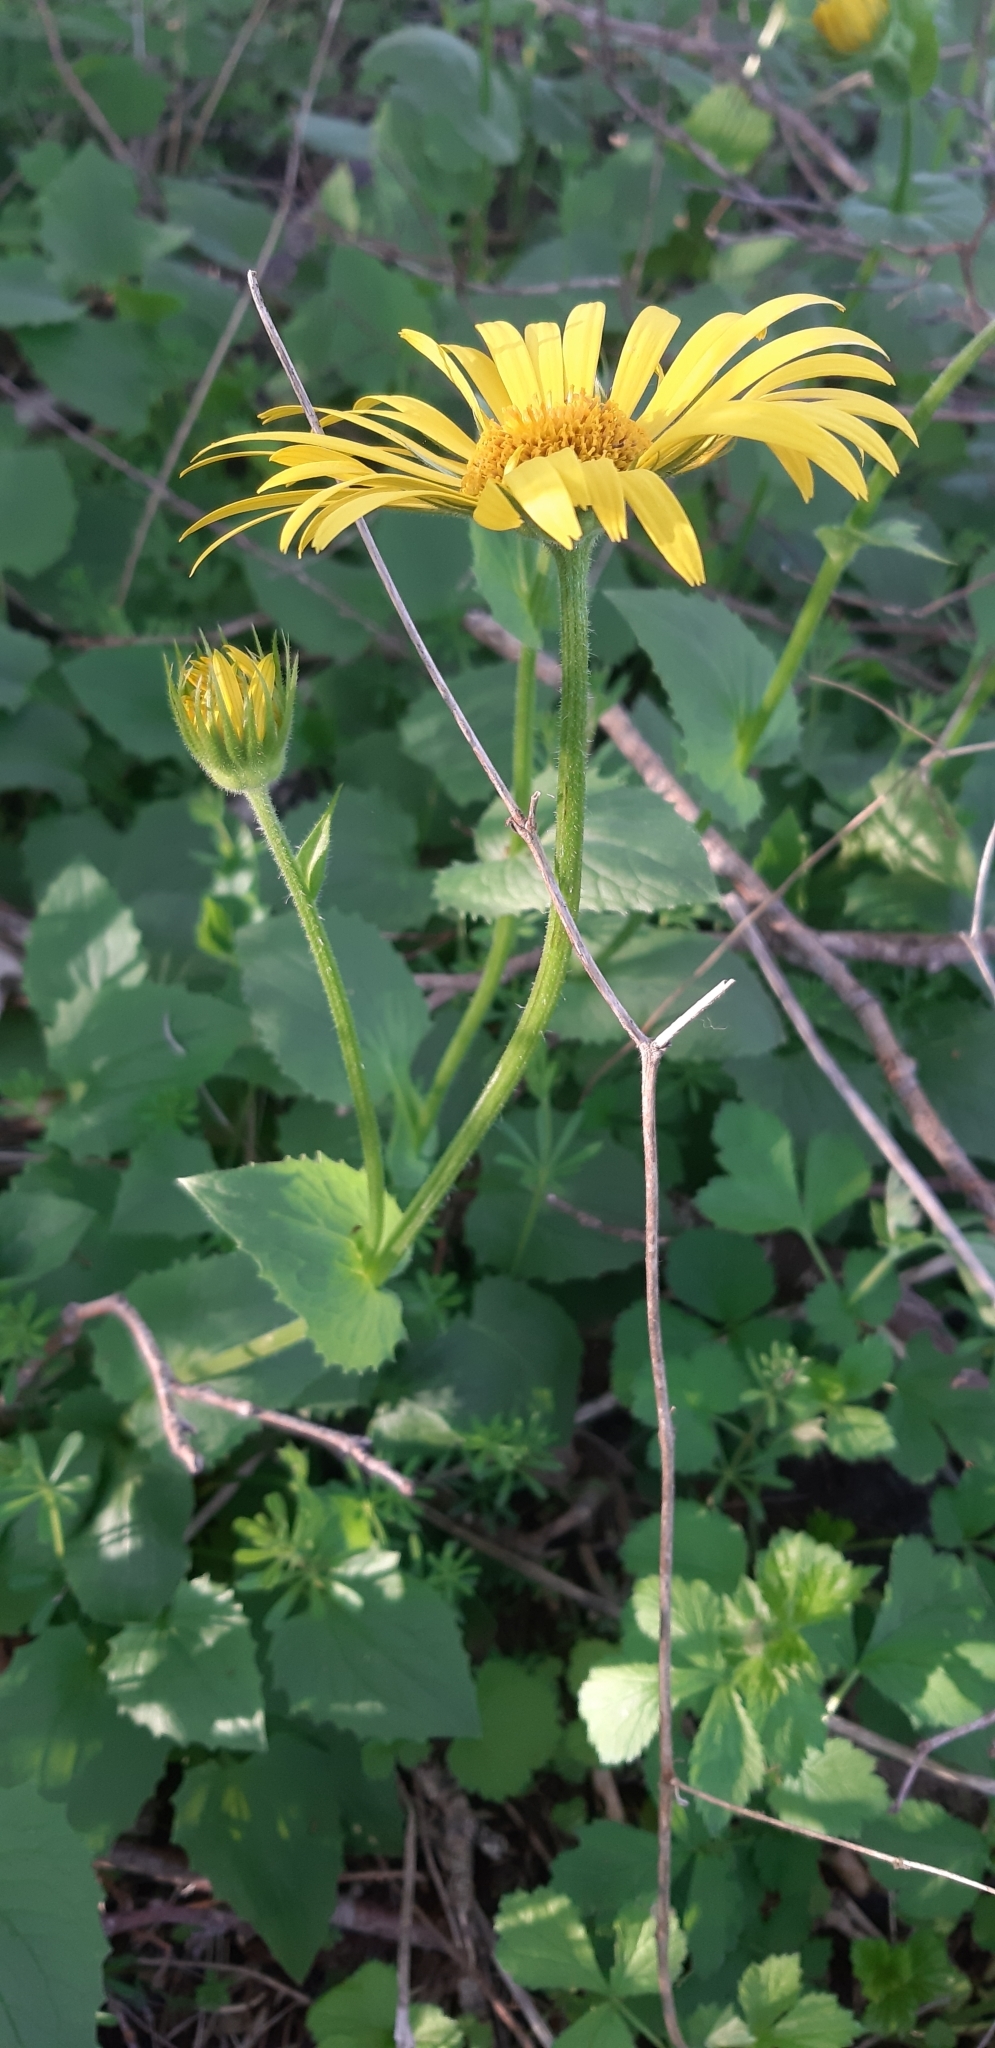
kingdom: Plantae
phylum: Tracheophyta
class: Magnoliopsida
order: Asterales
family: Asteraceae
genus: Doronicum
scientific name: Doronicum pardalianches
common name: Leopard's-bane
